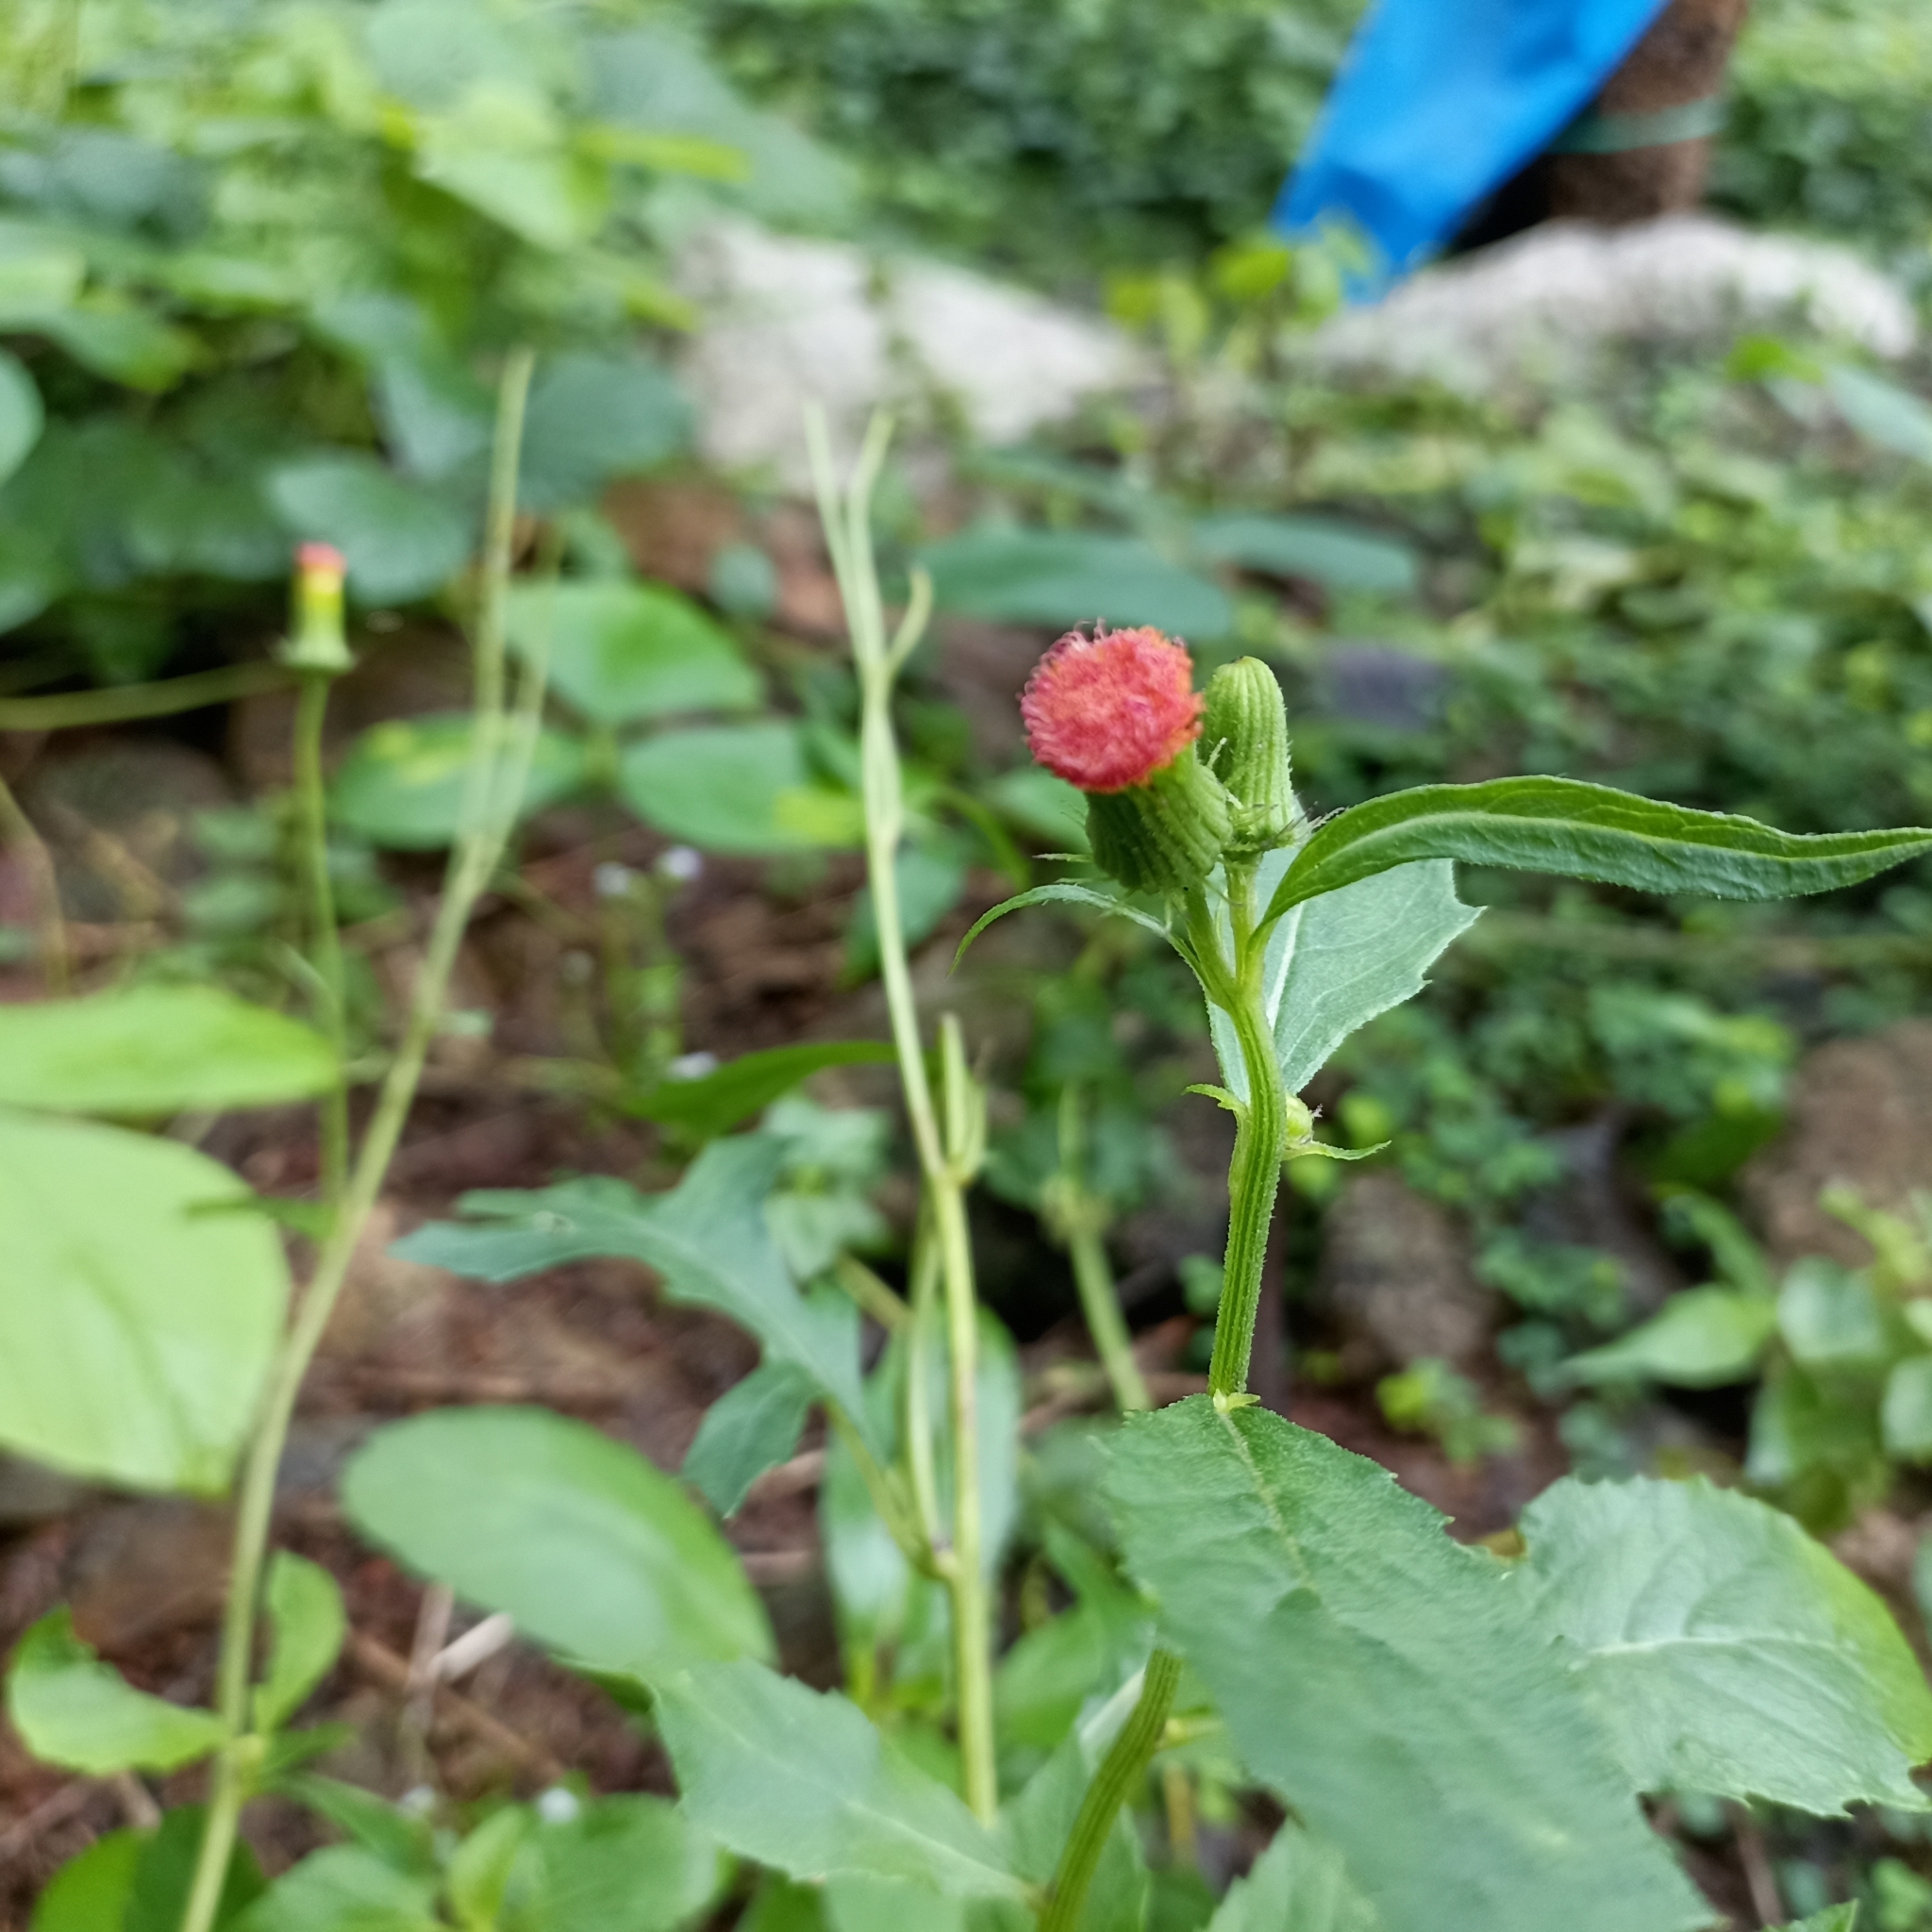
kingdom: Plantae
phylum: Tracheophyta
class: Magnoliopsida
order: Asterales
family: Asteraceae
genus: Crassocephalum
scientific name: Crassocephalum crepidioides
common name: Redflower ragleaf
